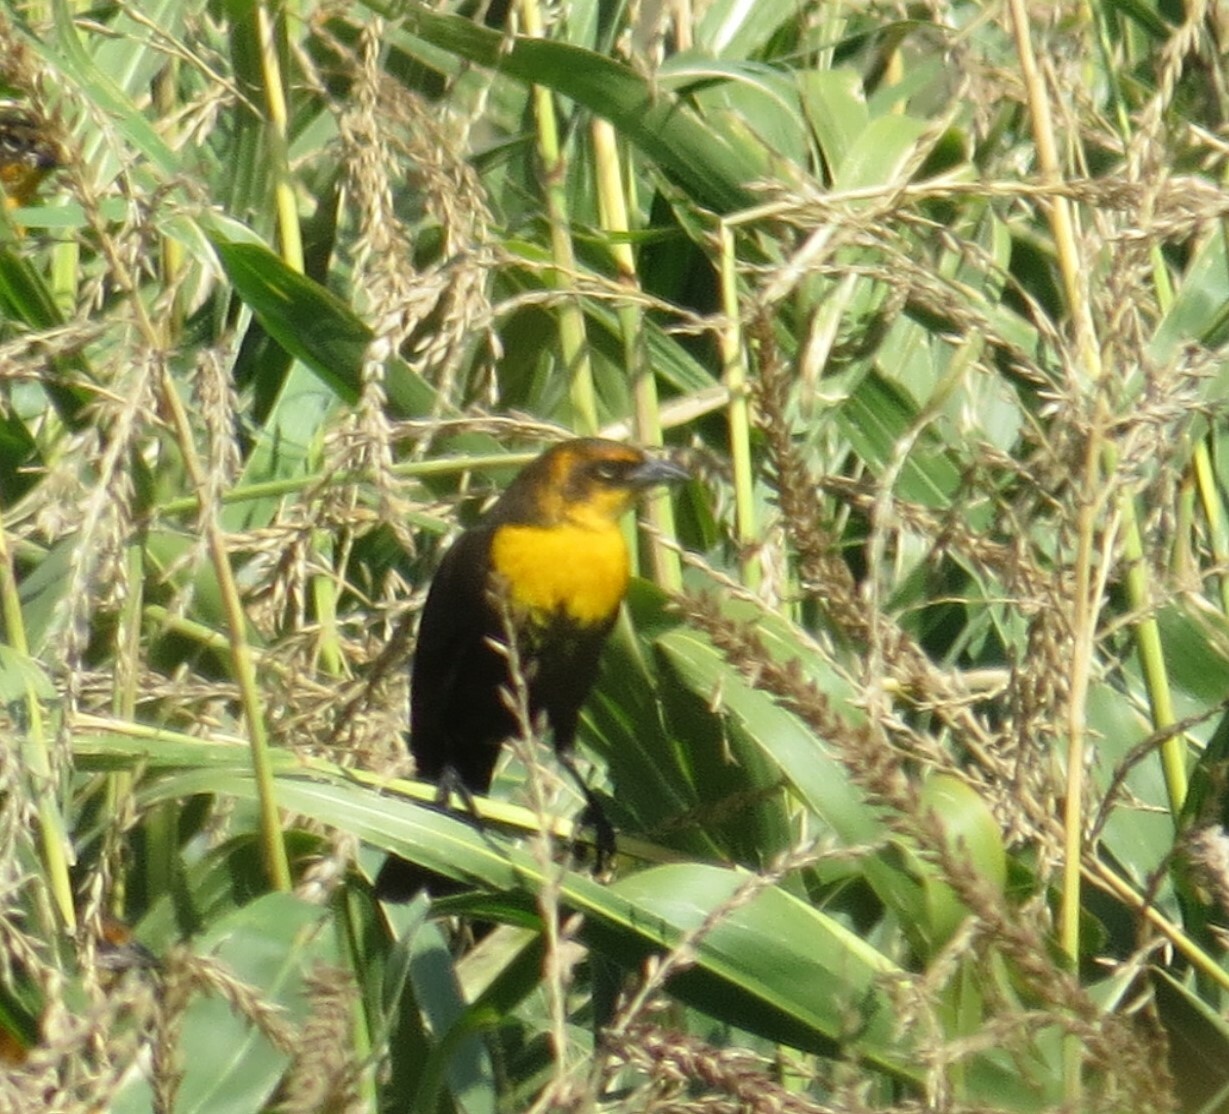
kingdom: Animalia
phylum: Chordata
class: Aves
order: Passeriformes
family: Icteridae
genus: Xanthocephalus
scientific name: Xanthocephalus xanthocephalus
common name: Yellow-headed blackbird
